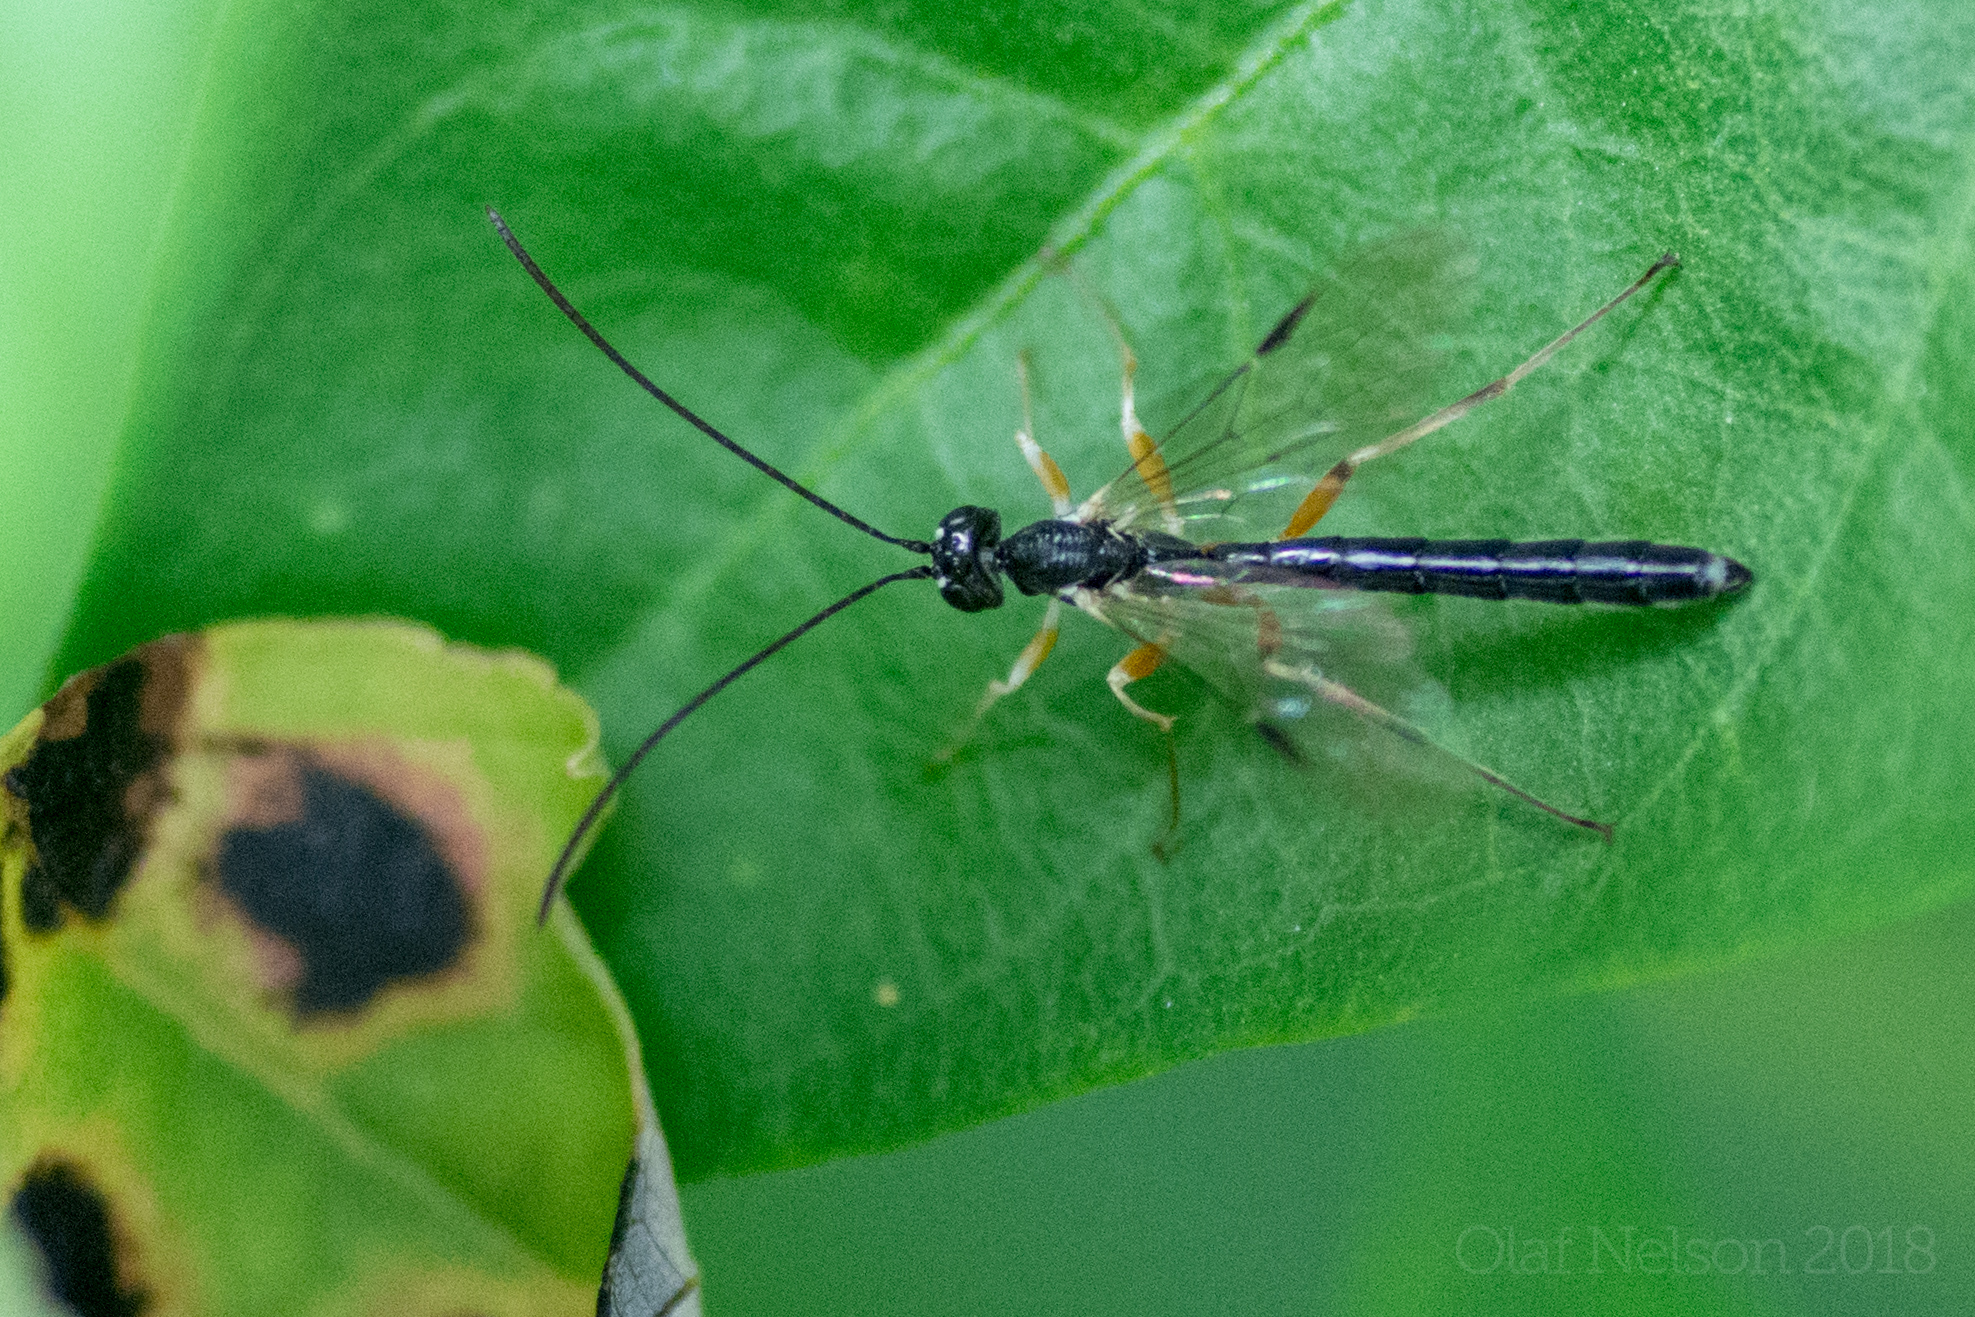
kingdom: Animalia
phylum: Arthropoda
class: Insecta
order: Hymenoptera
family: Ichneumonidae
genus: Rhyssella
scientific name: Rhyssella nitida
